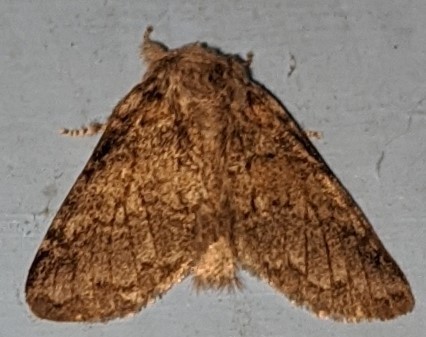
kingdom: Animalia
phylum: Arthropoda
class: Insecta
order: Lepidoptera
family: Notodontidae
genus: Gluphisia
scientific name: Gluphisia septentrionis
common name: Common gluphisia
